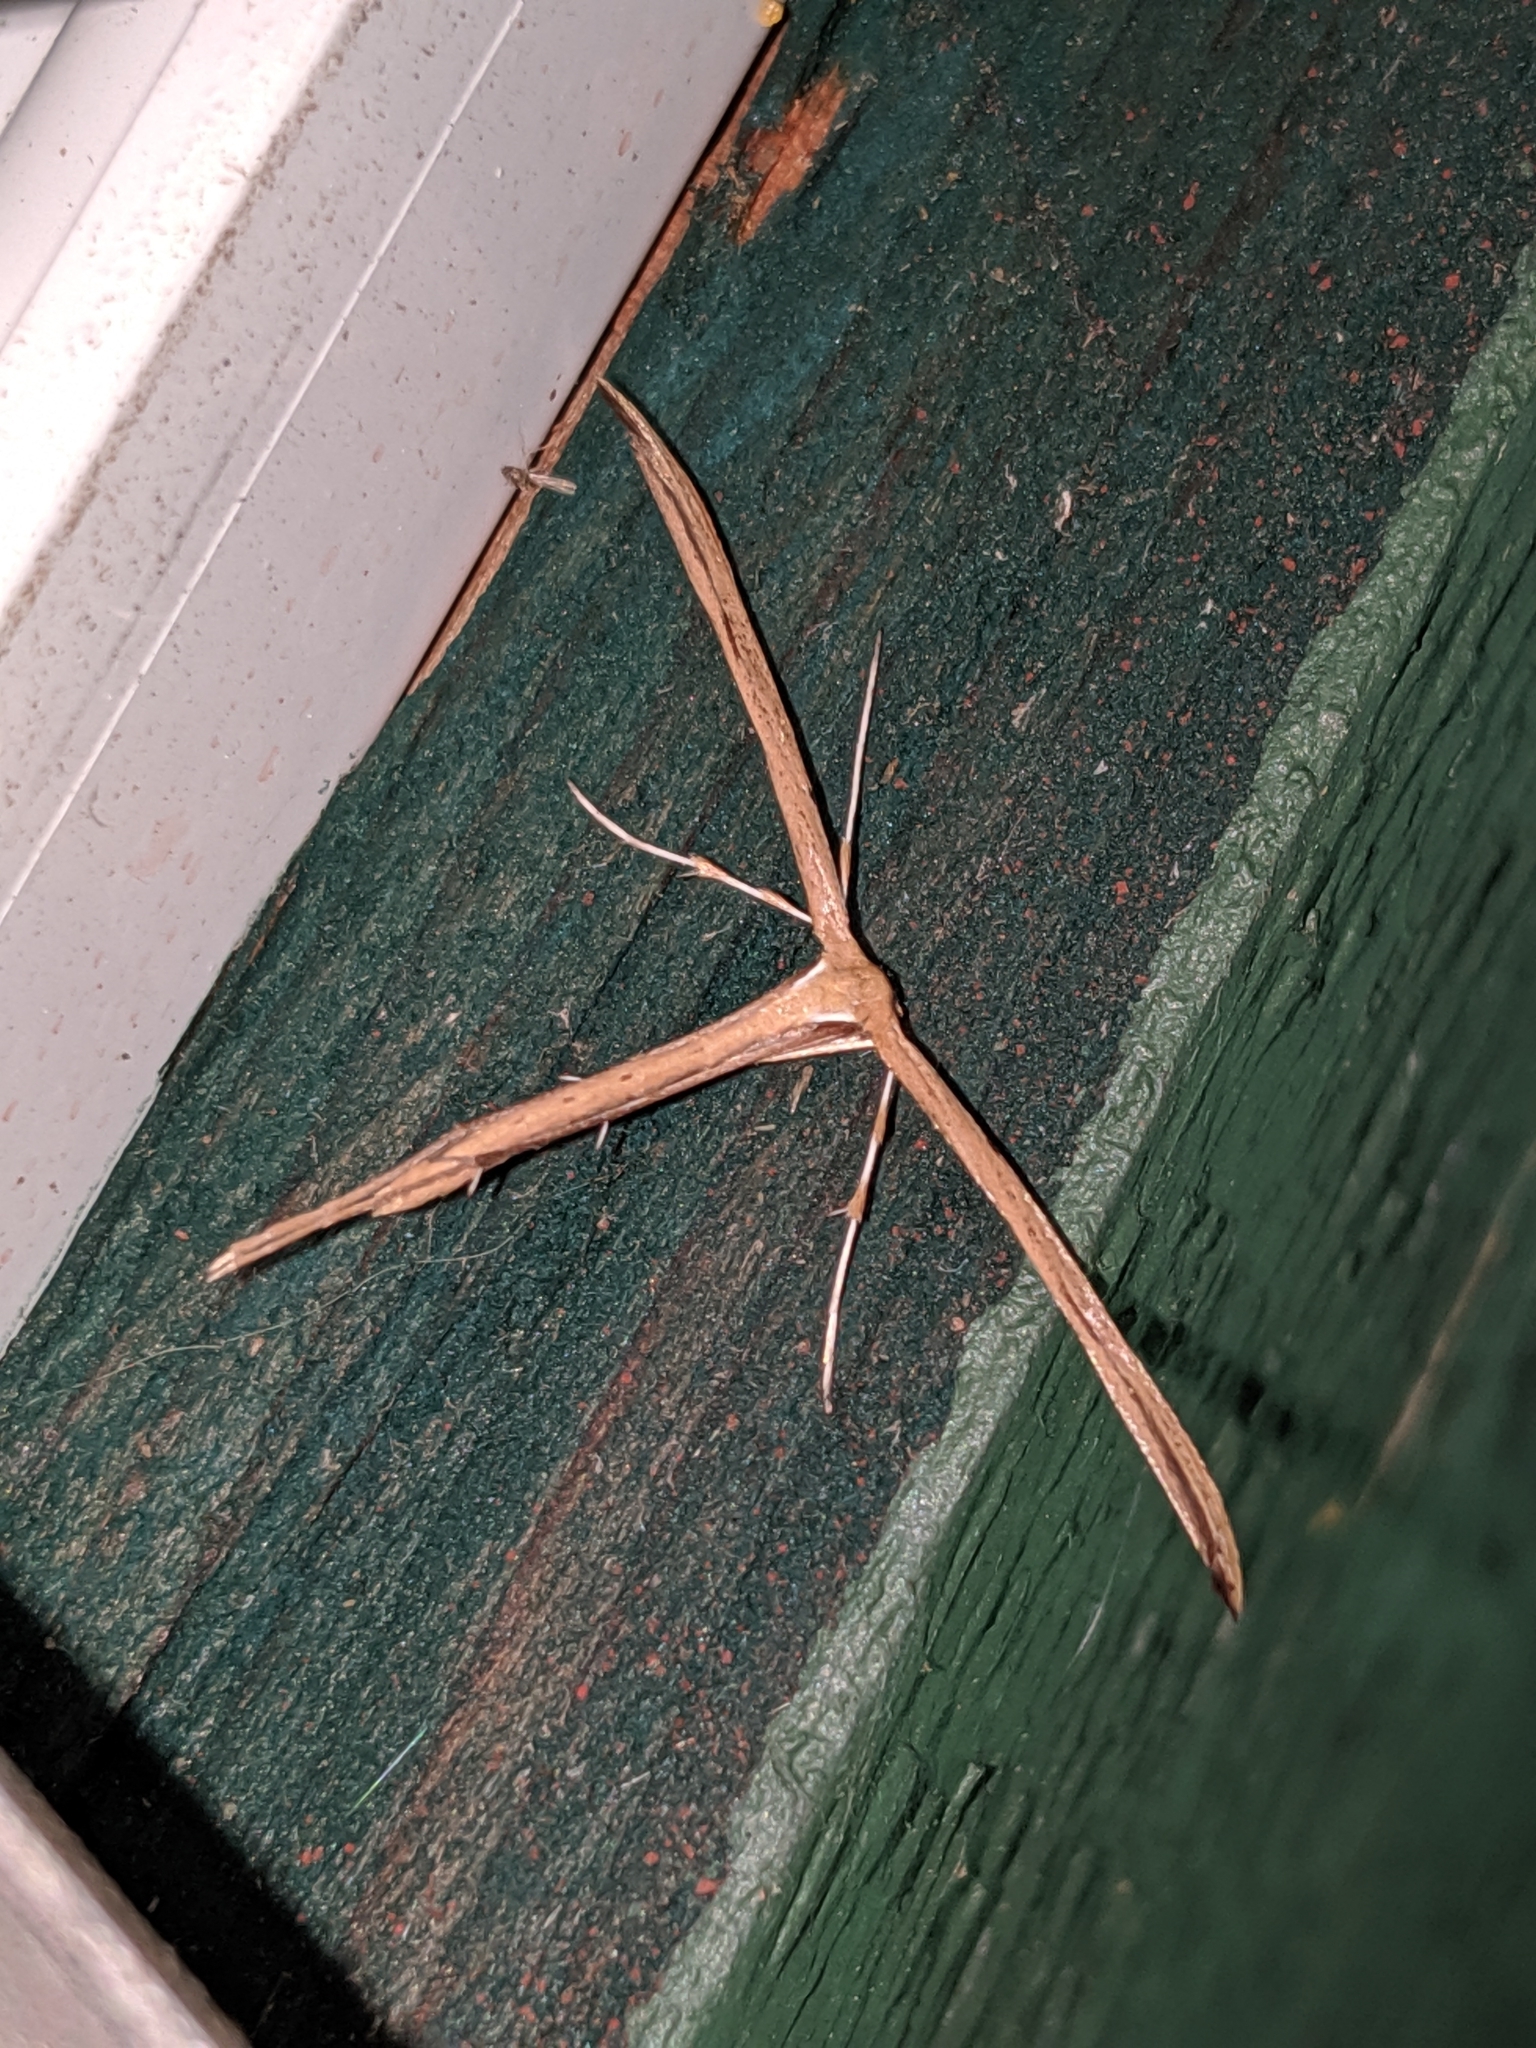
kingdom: Animalia
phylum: Arthropoda
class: Insecta
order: Lepidoptera
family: Pterophoridae
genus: Emmelina
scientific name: Emmelina monodactyla
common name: Common plume
